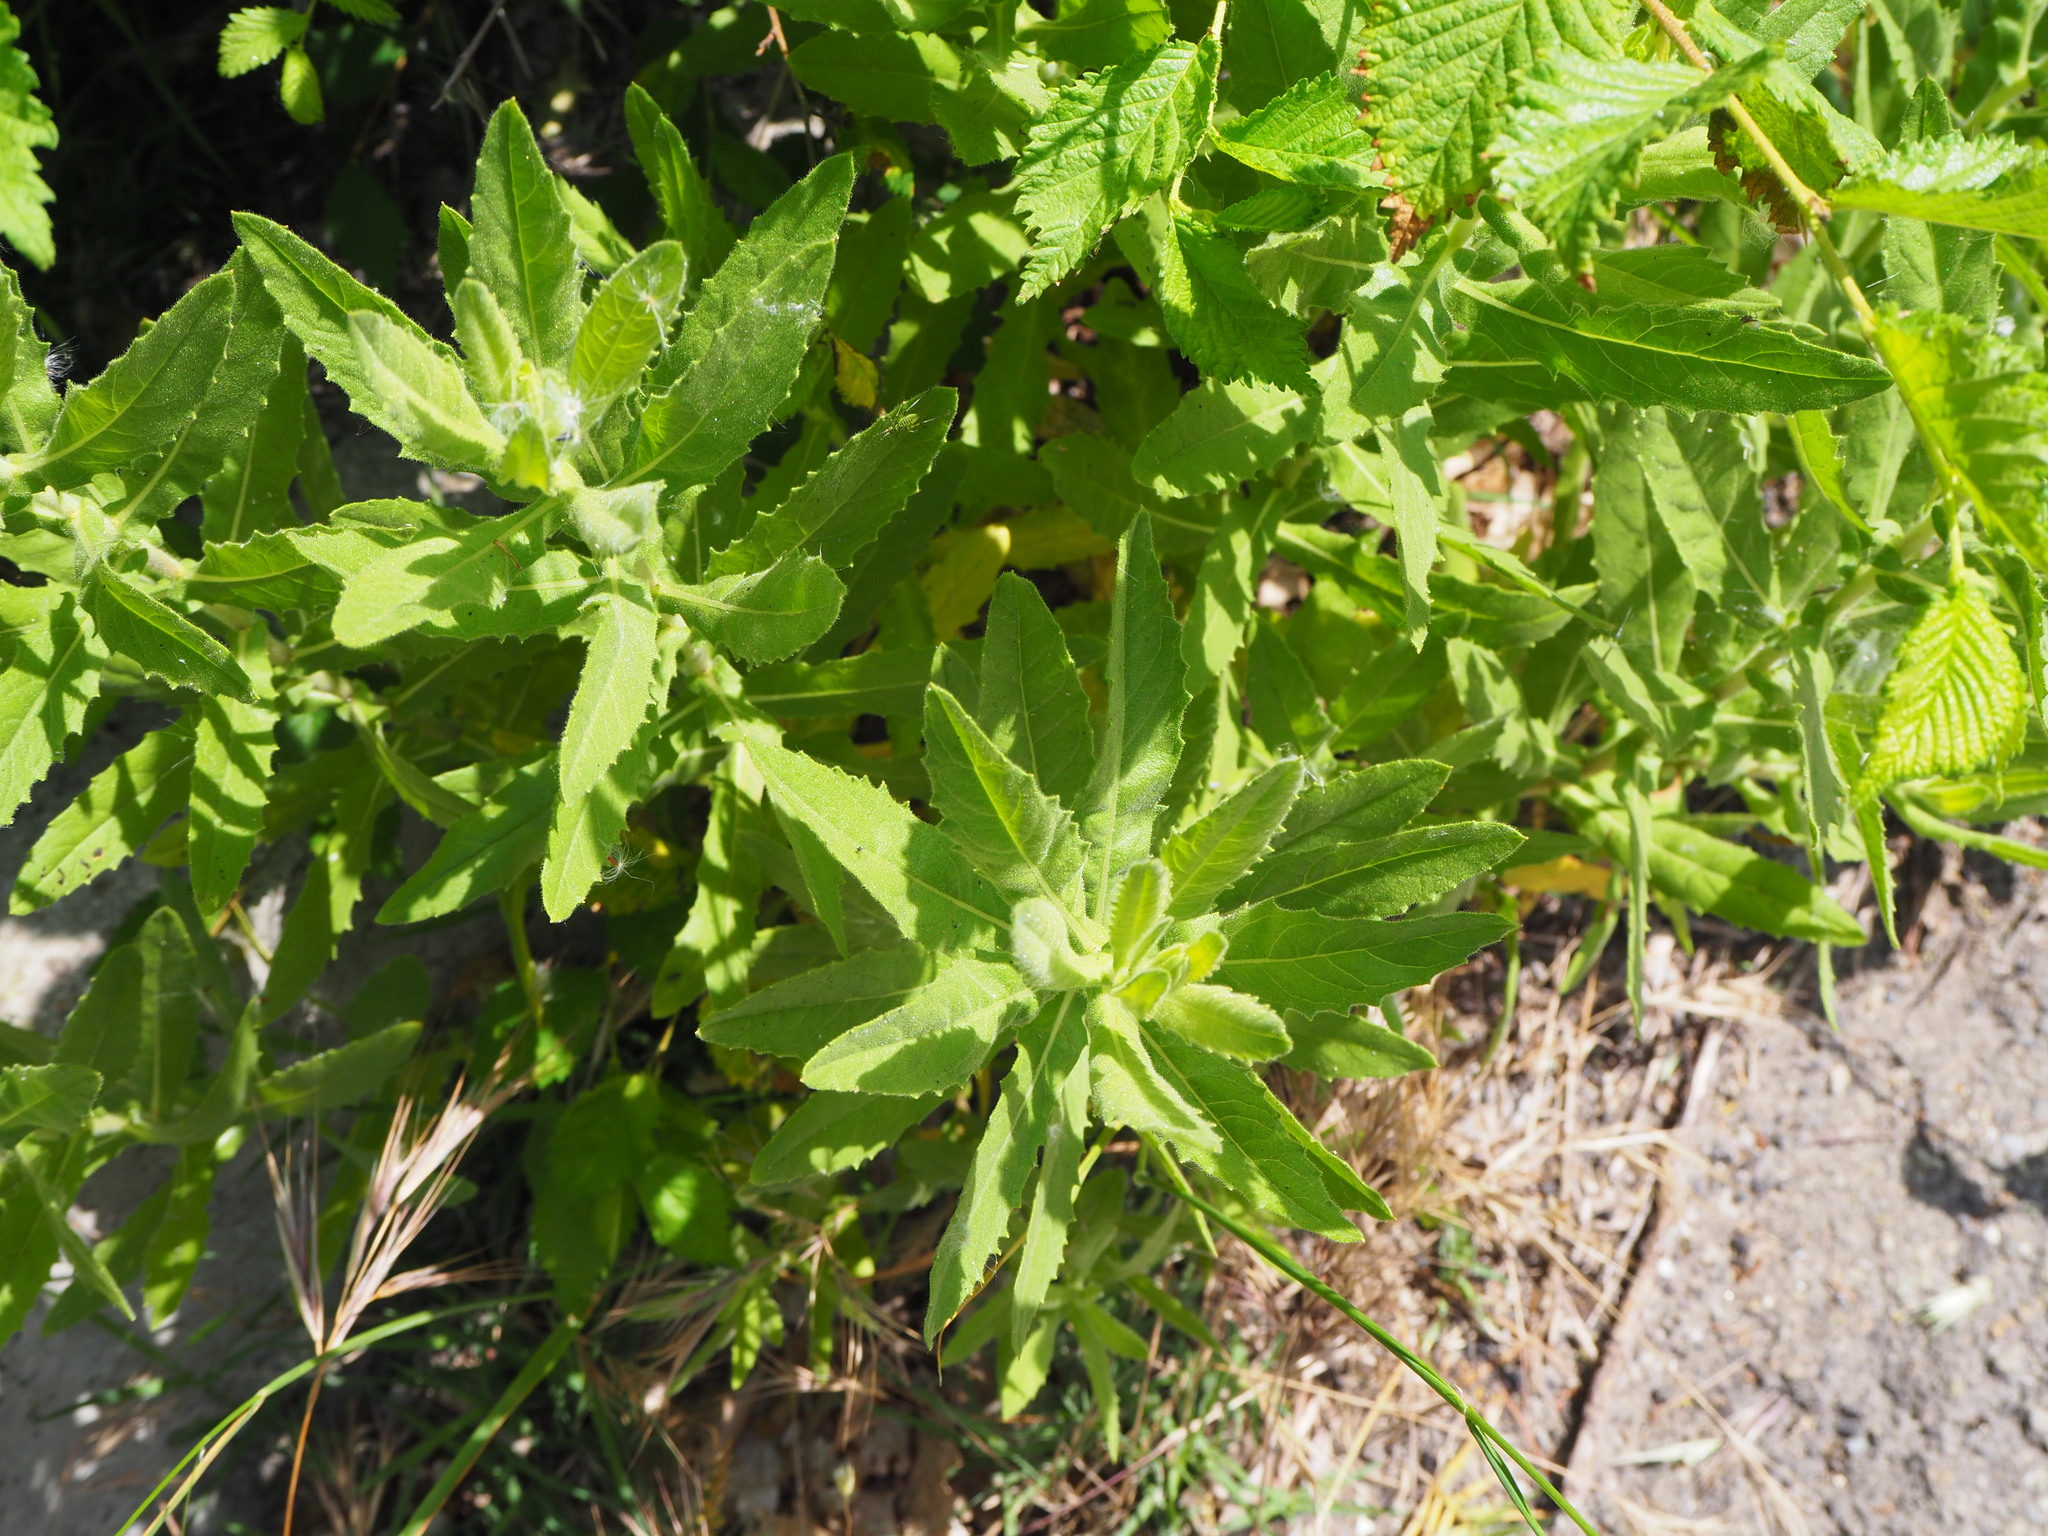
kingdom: Plantae
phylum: Tracheophyta
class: Magnoliopsida
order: Asterales
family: Asteraceae
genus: Dittrichia
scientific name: Dittrichia viscosa
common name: Woody fleabane
